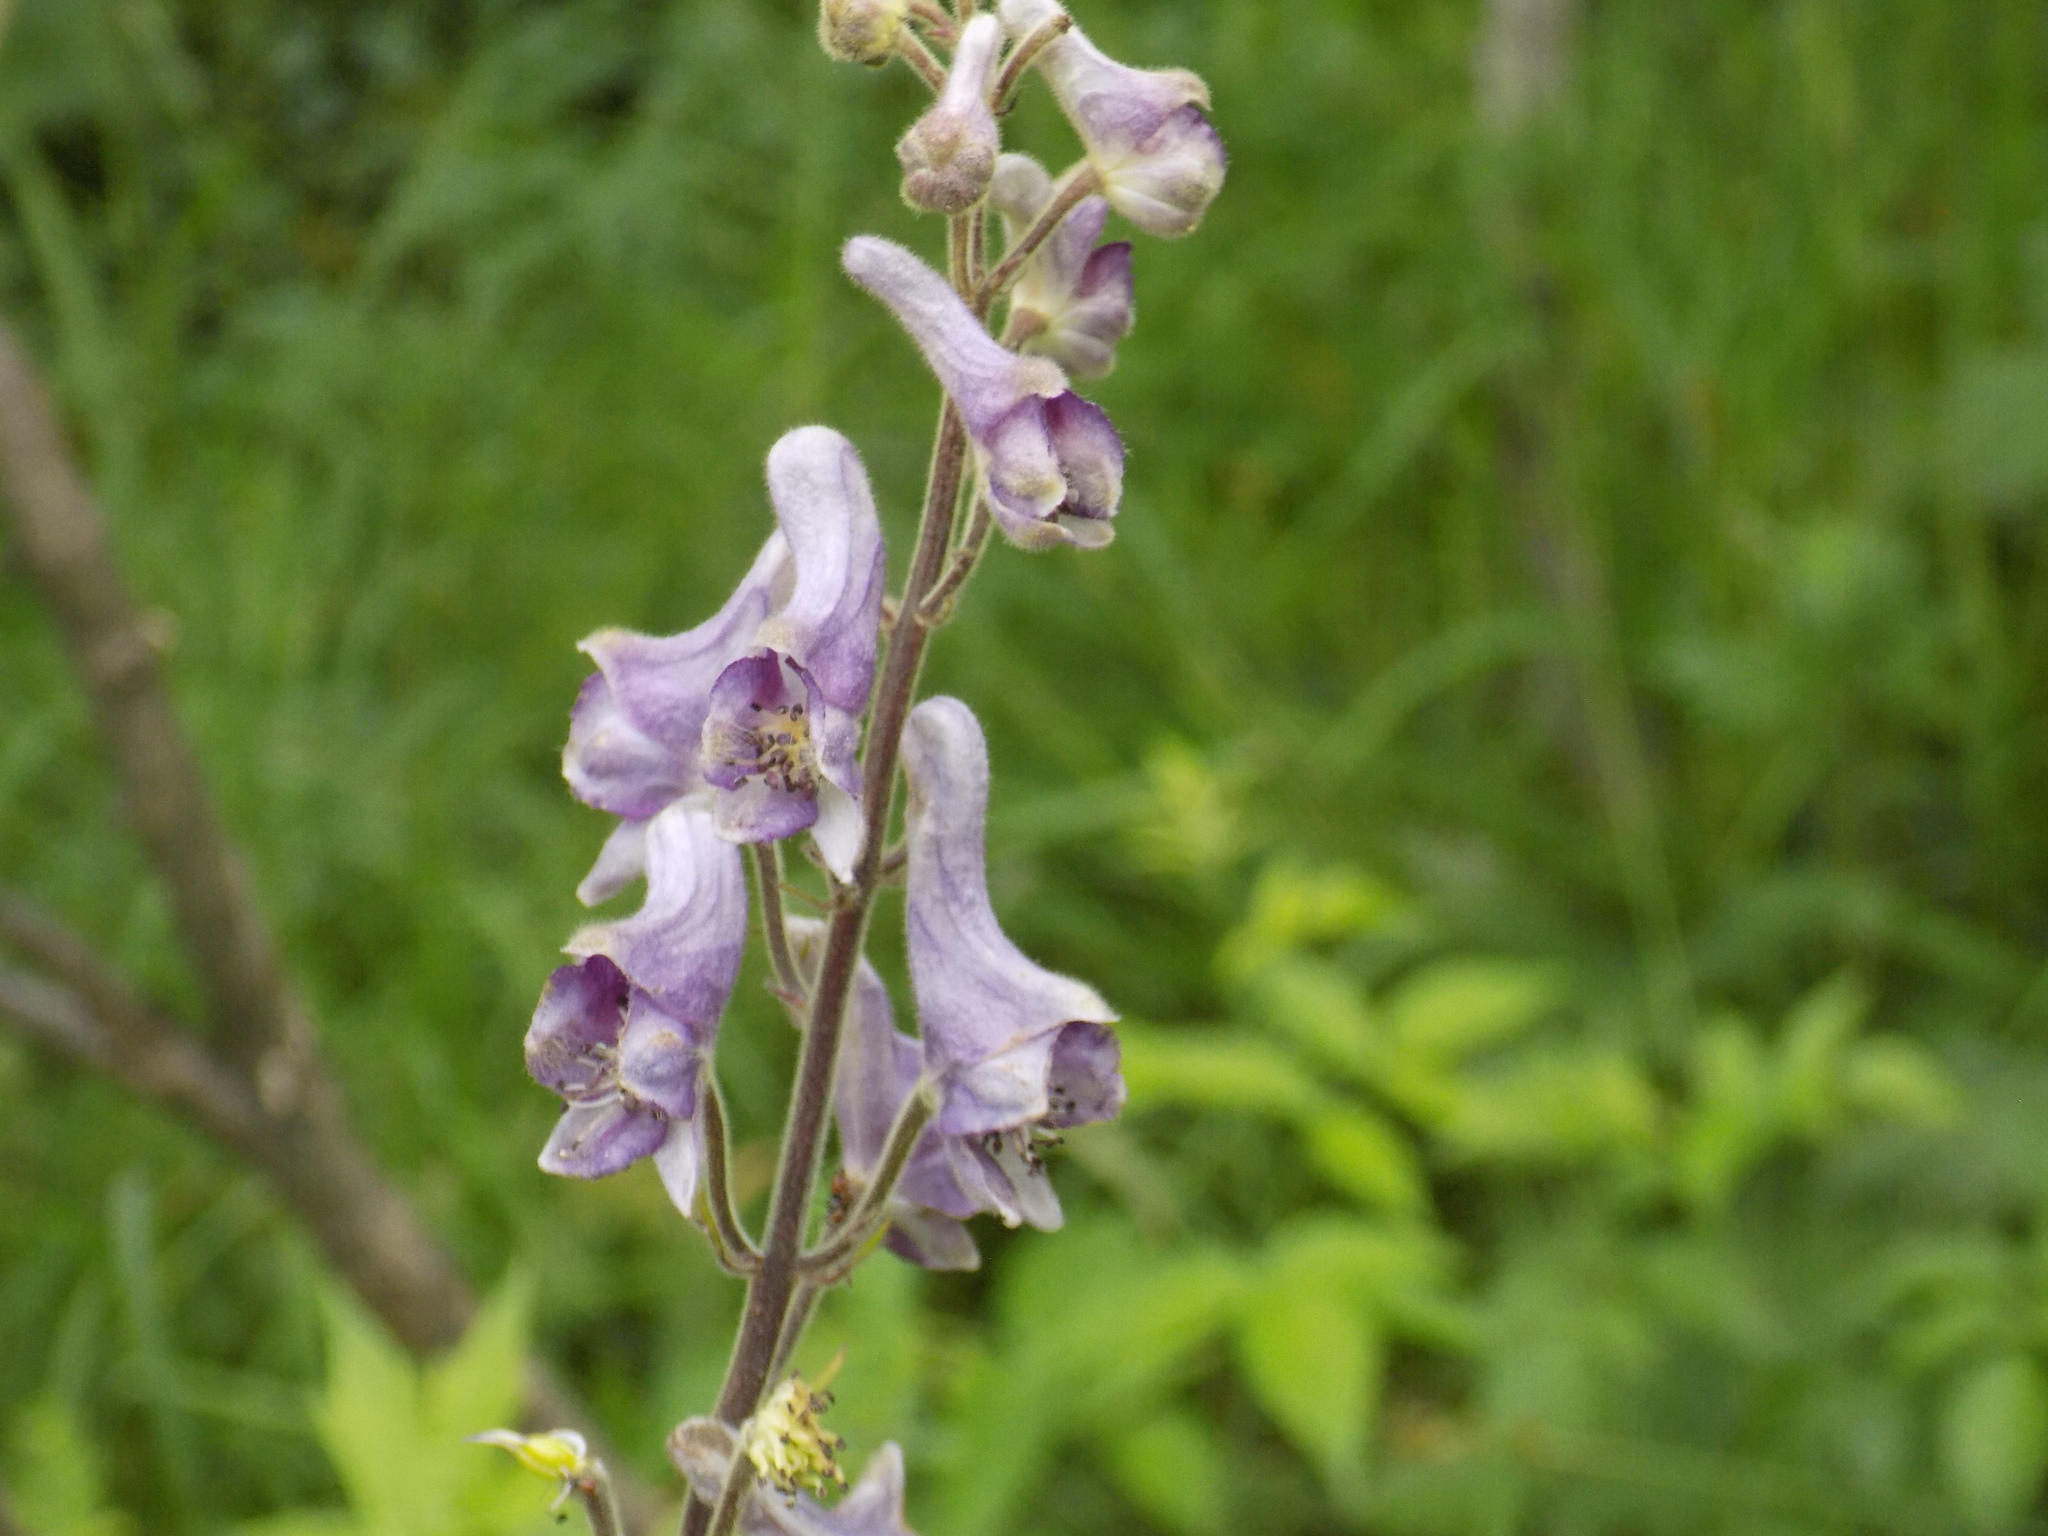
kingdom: Plantae
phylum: Tracheophyta
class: Magnoliopsida
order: Ranunculales
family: Ranunculaceae
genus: Aconitum
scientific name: Aconitum septentrionale
